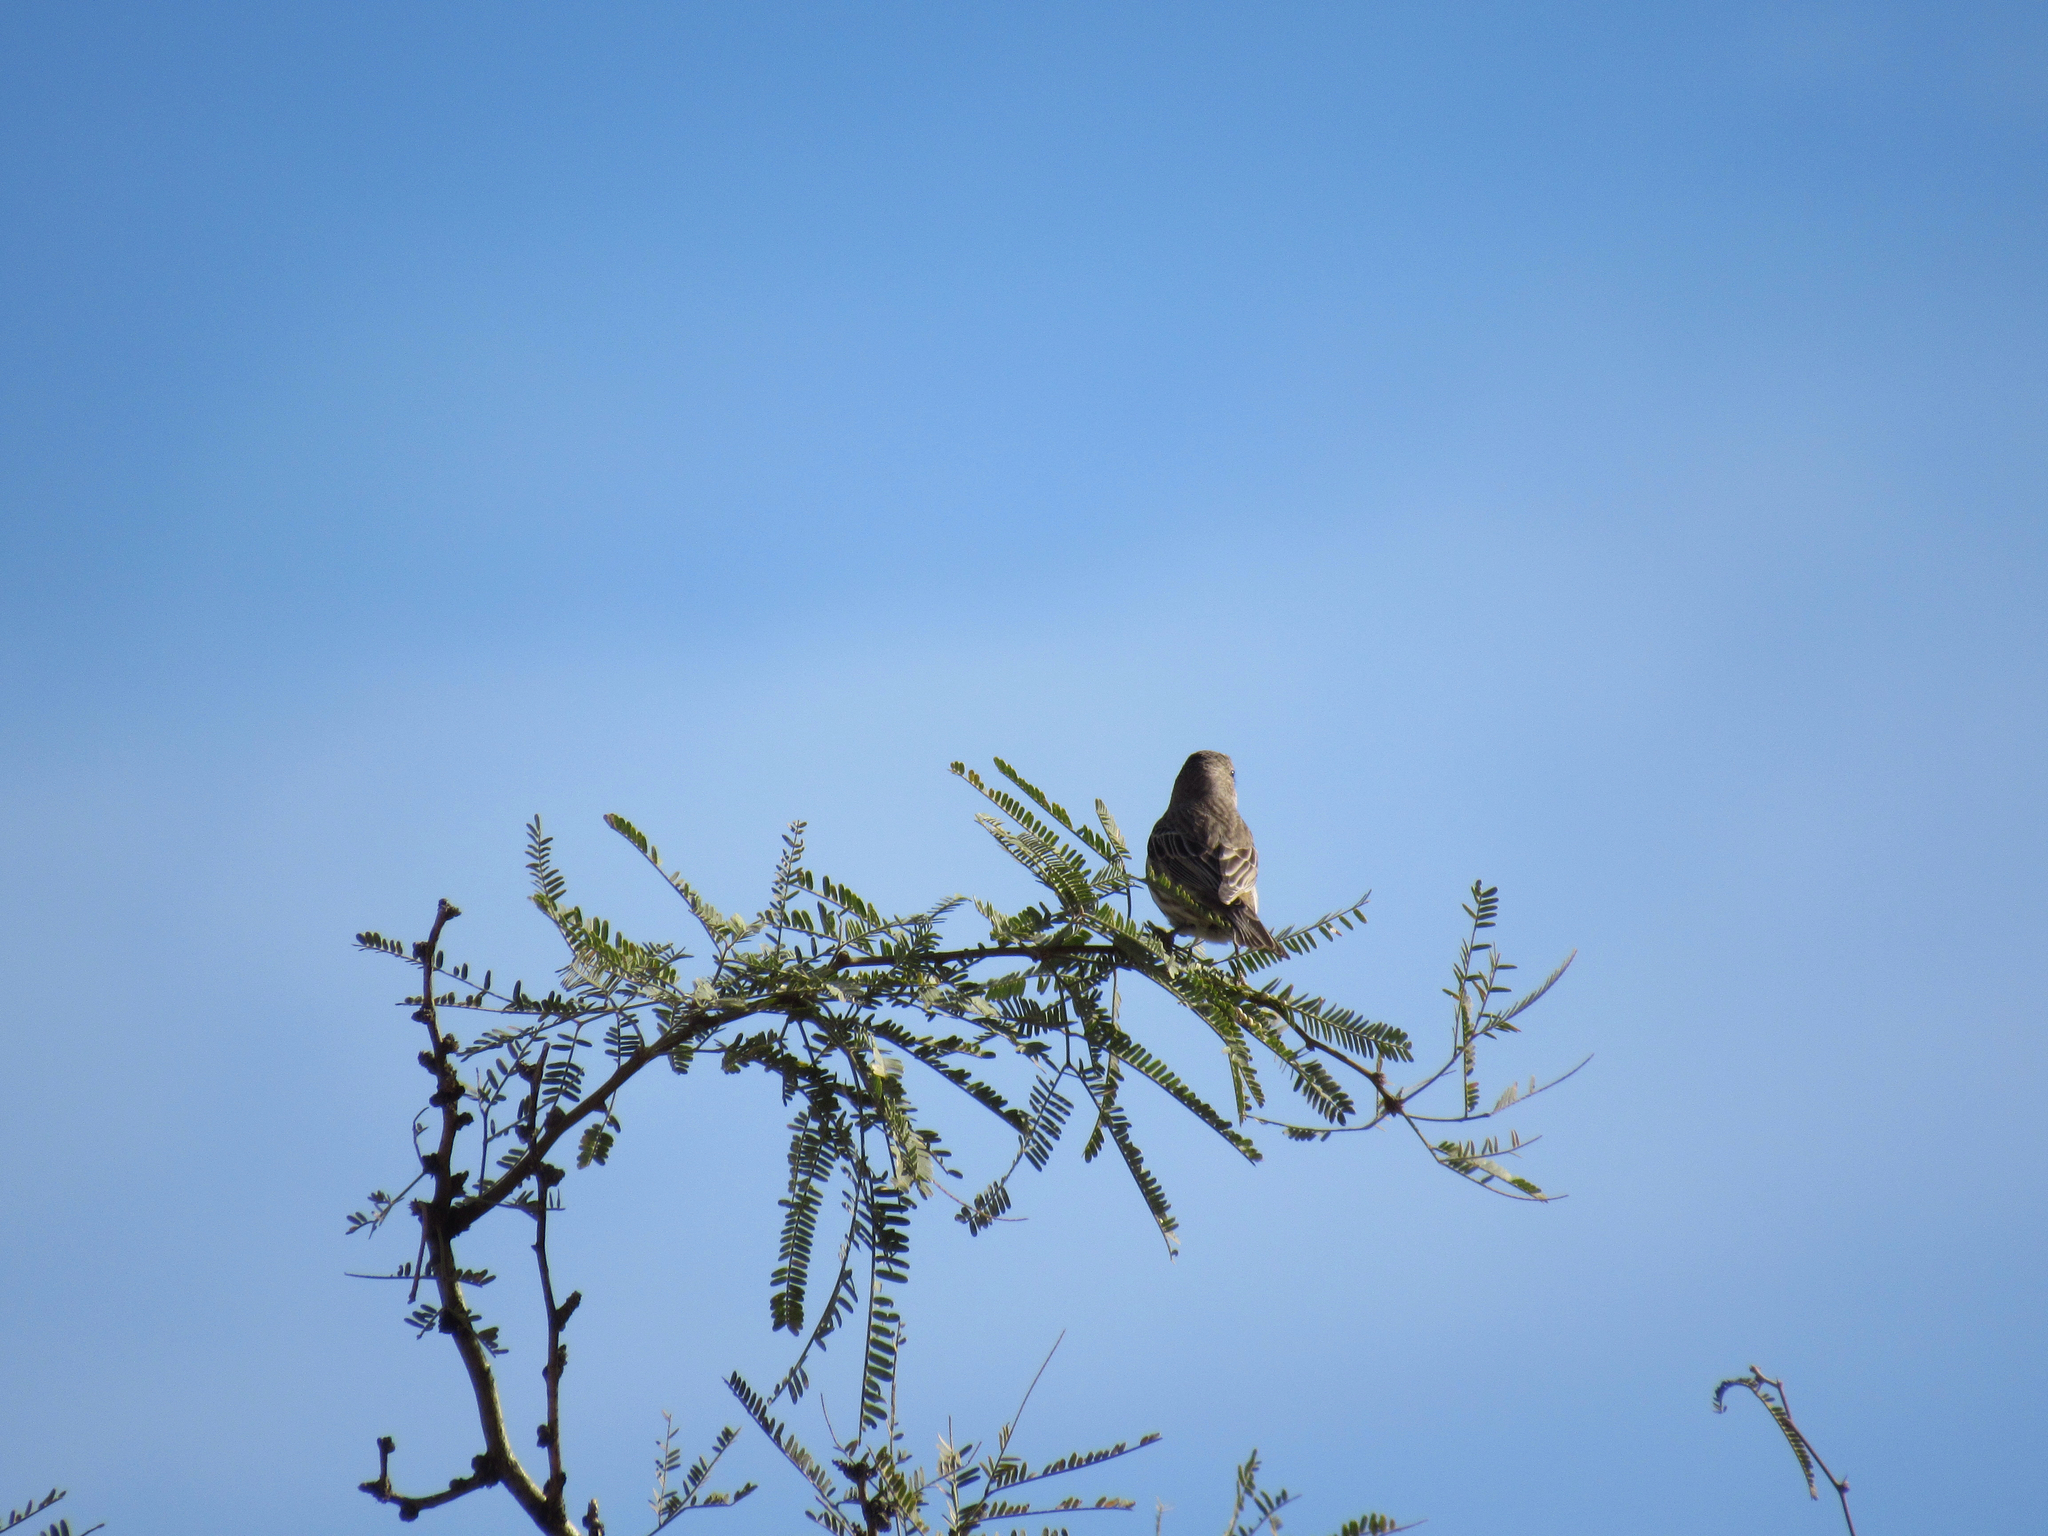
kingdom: Animalia
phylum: Chordata
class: Aves
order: Passeriformes
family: Fringillidae
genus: Haemorhous
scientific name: Haemorhous mexicanus
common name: House finch
